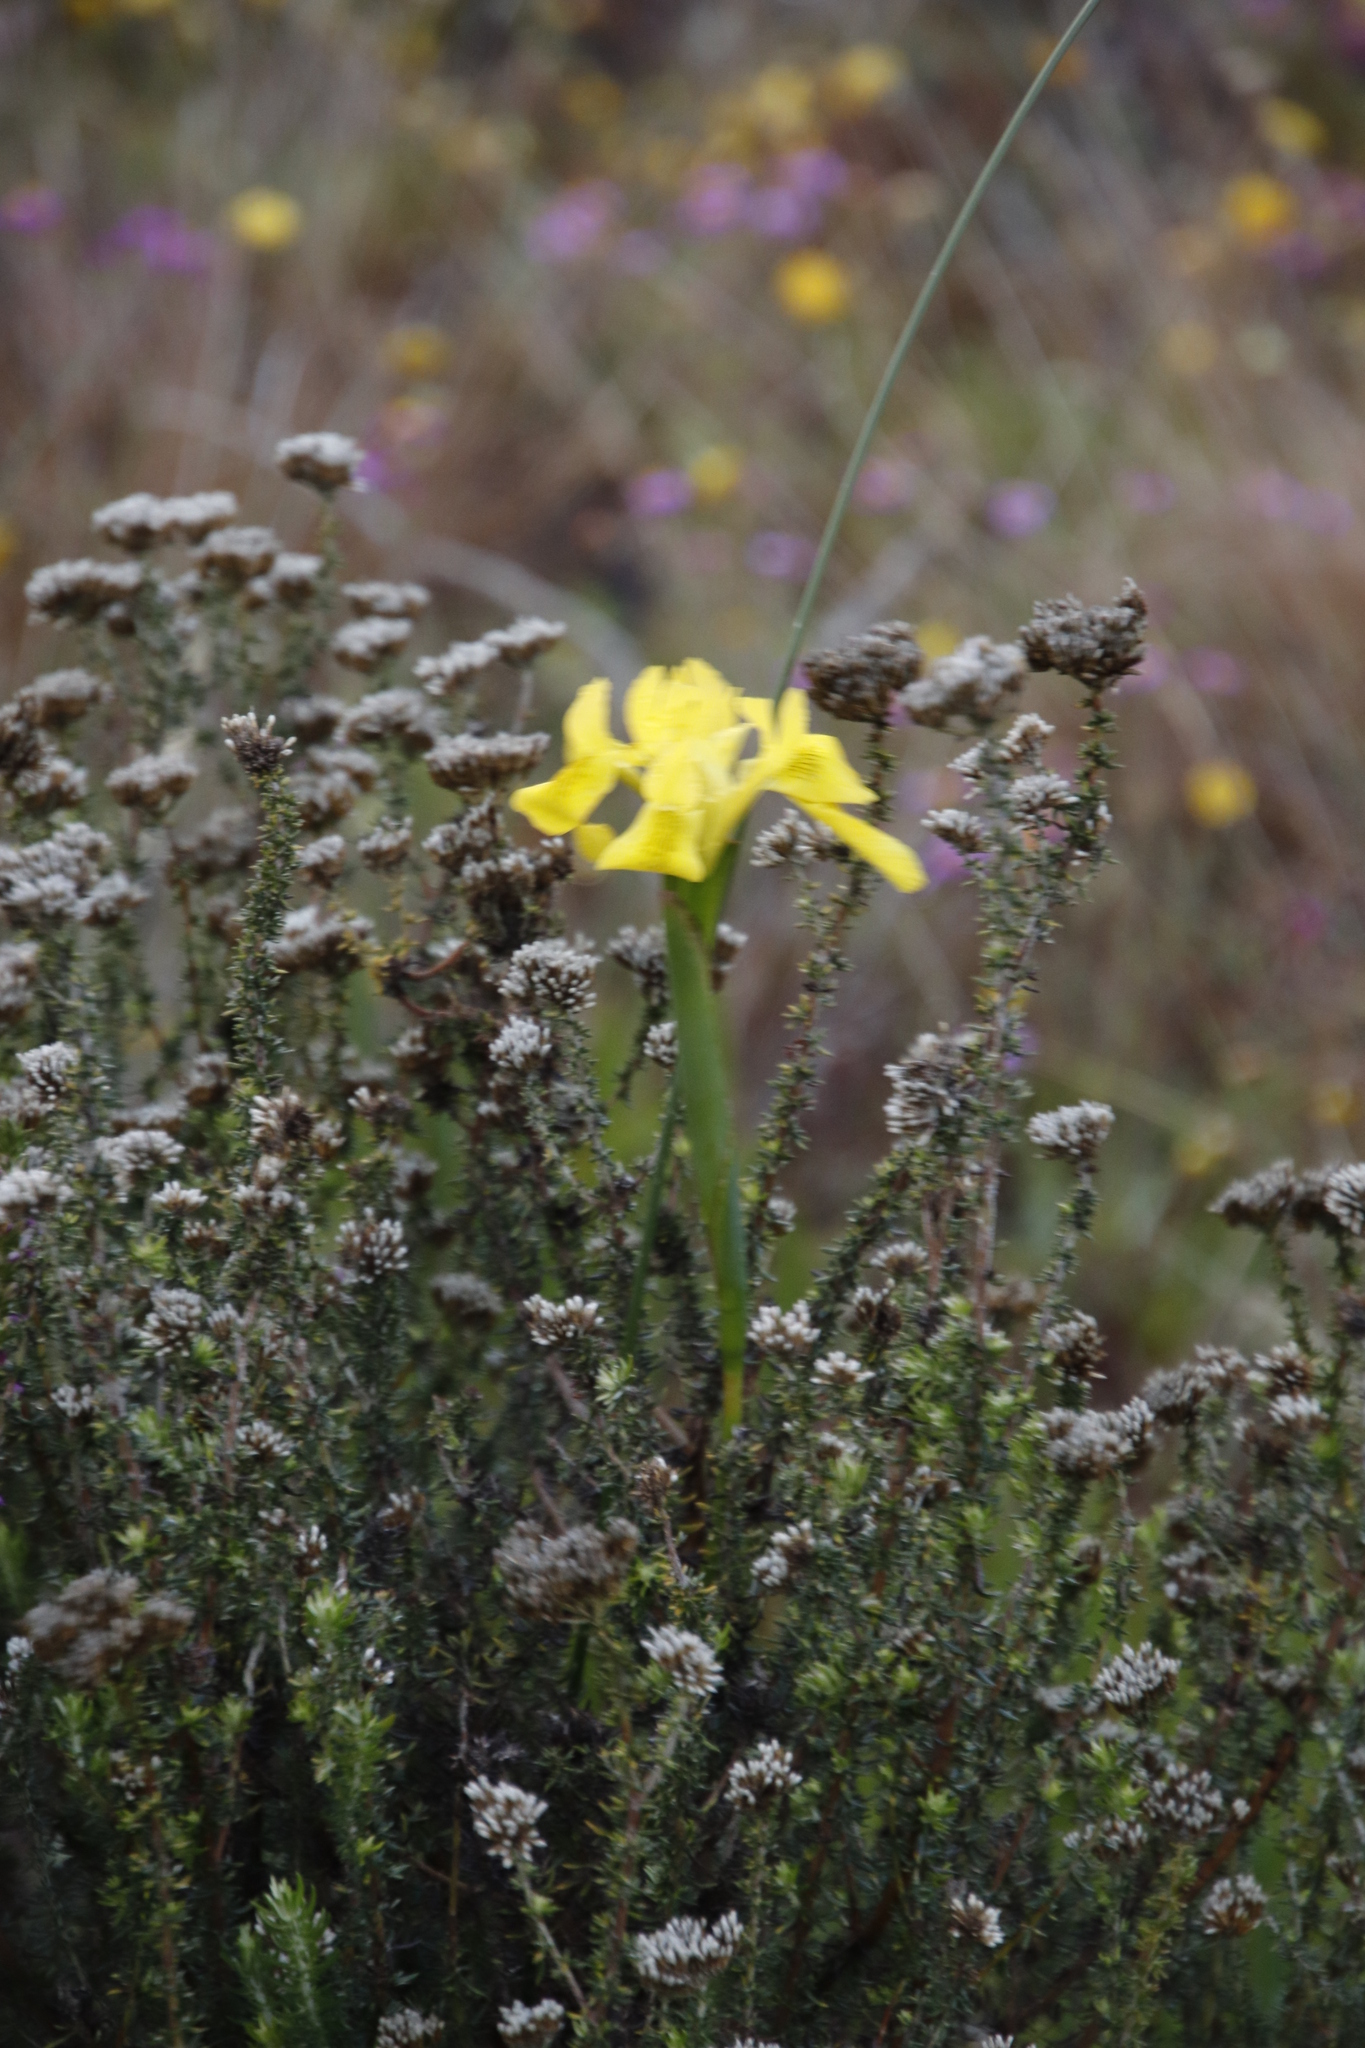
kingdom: Plantae
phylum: Tracheophyta
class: Liliopsida
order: Asparagales
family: Iridaceae
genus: Moraea
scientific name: Moraea fugax
